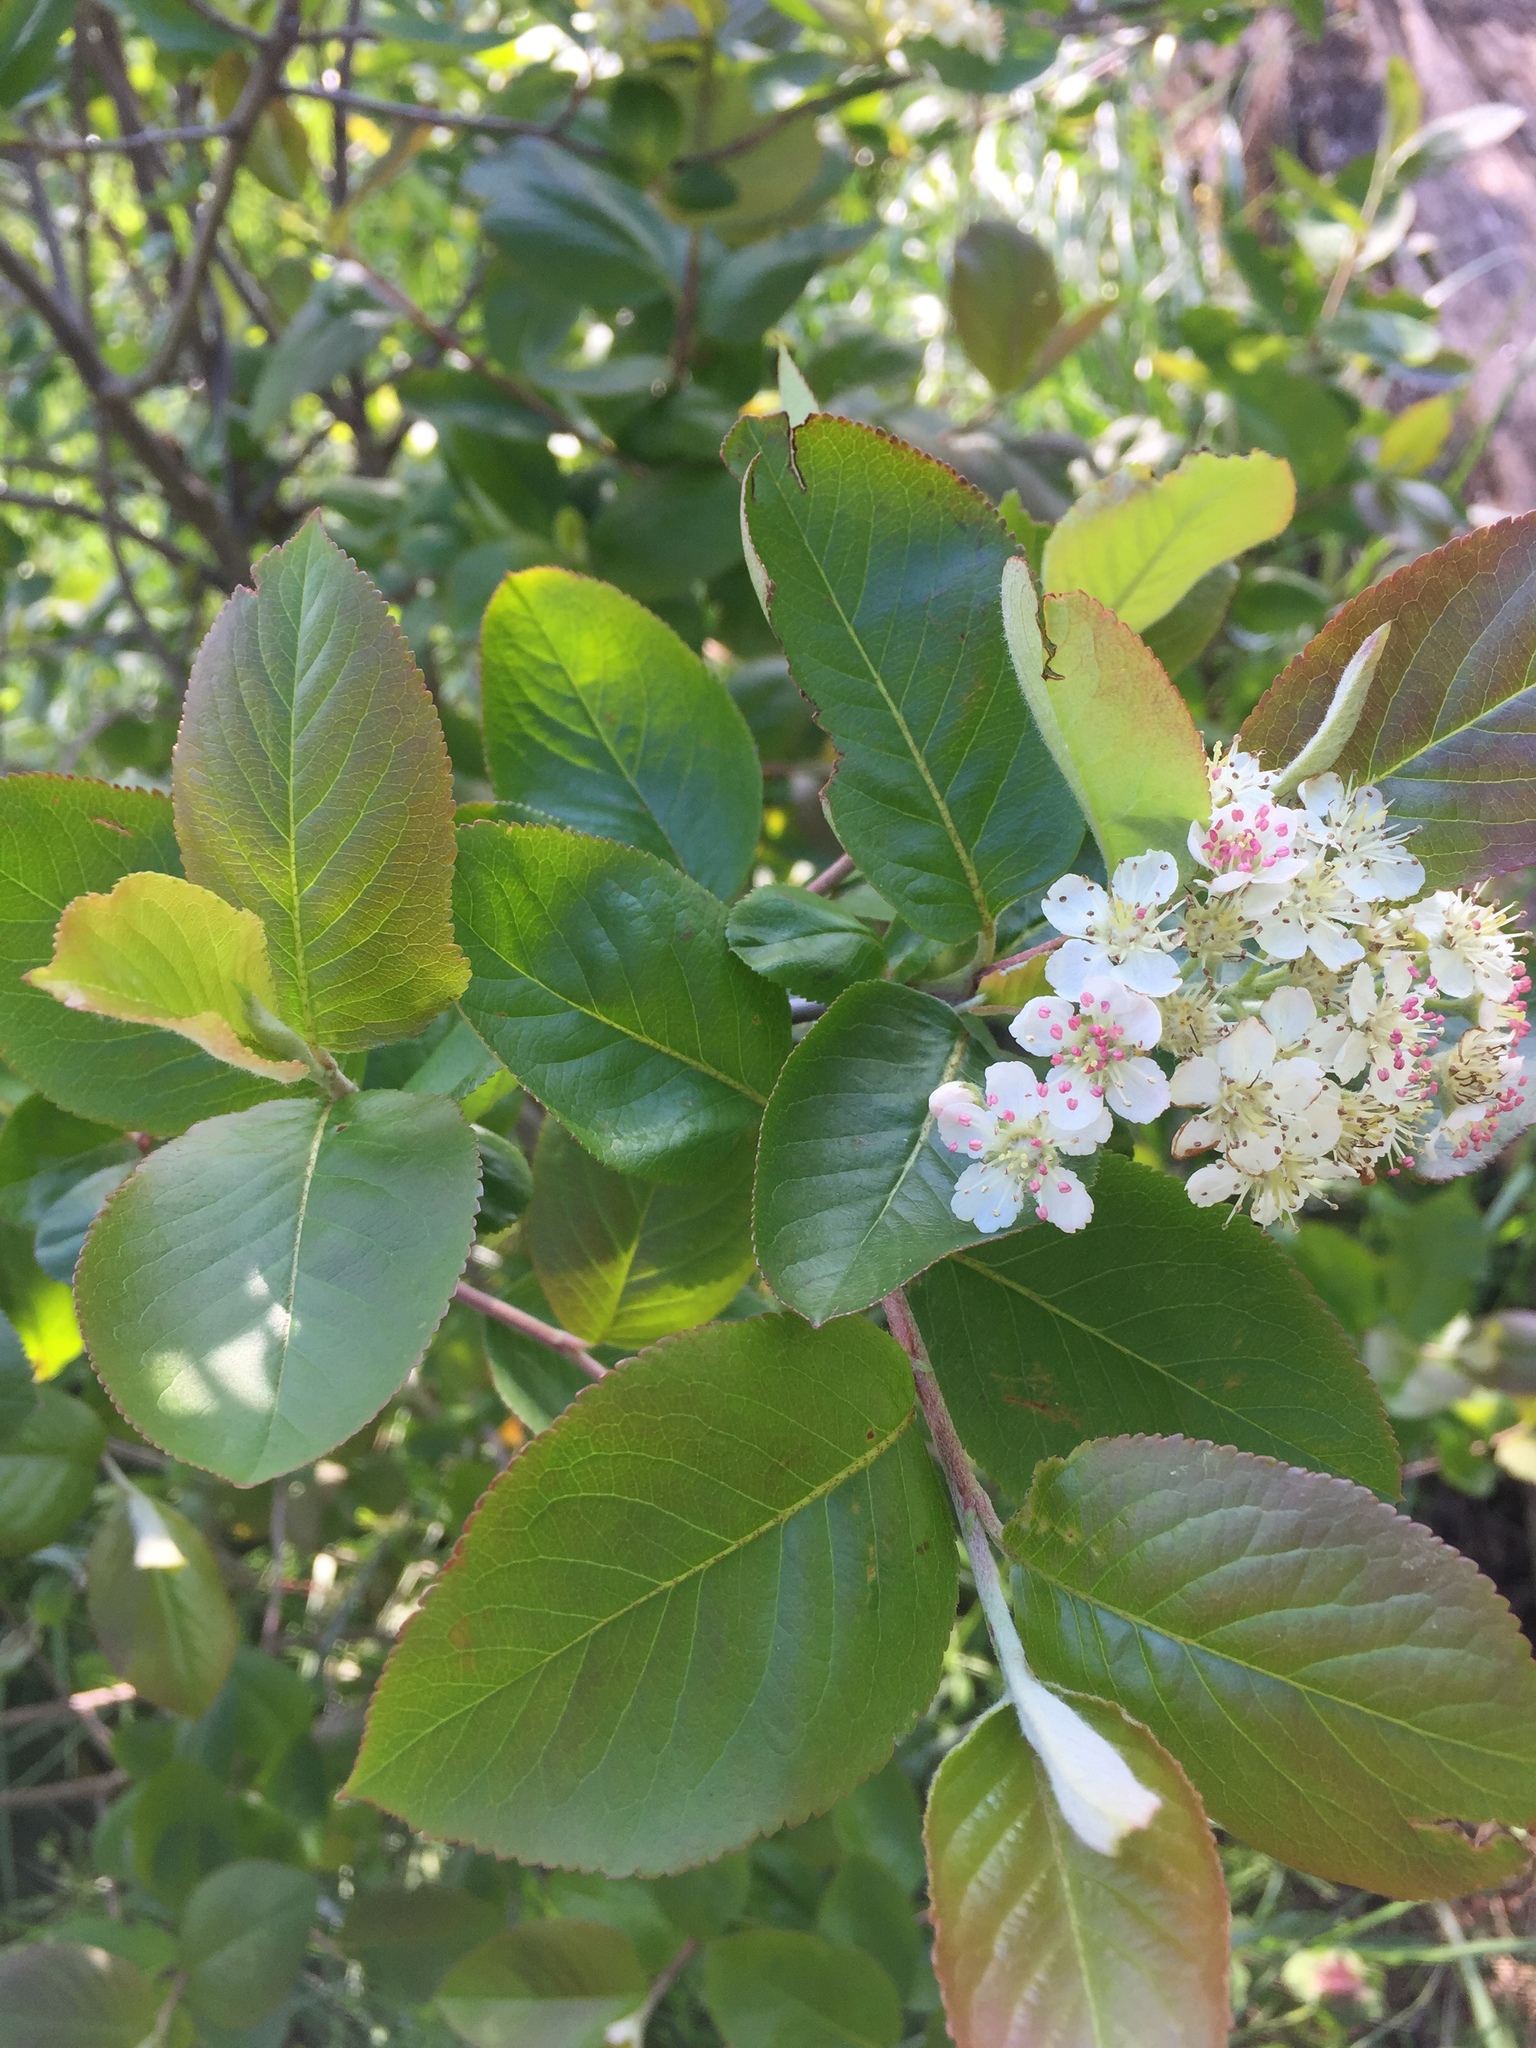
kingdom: Plantae
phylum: Tracheophyta
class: Magnoliopsida
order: Rosales
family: Rosaceae
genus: Aronia
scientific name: Aronia arbutifolia
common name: Red chokeberry
